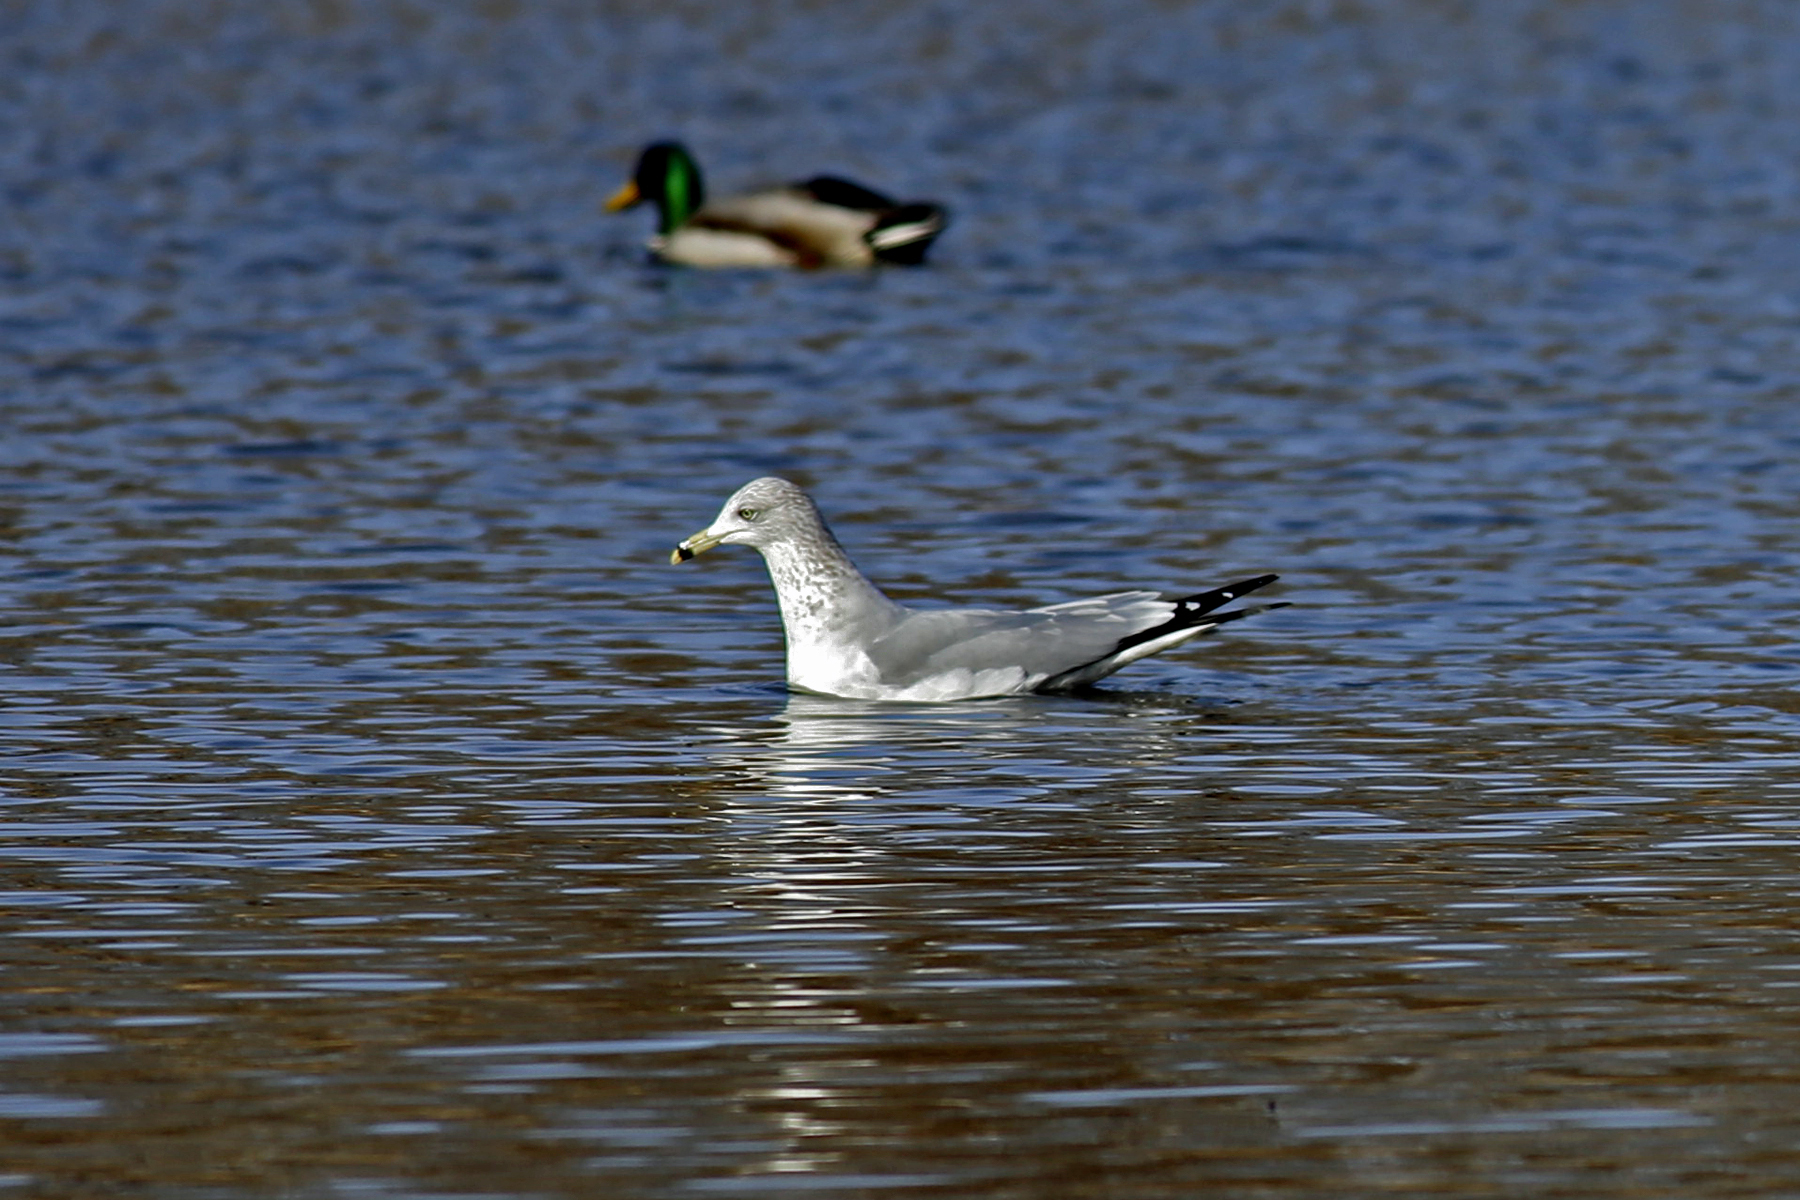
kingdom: Animalia
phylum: Chordata
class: Aves
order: Charadriiformes
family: Laridae
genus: Larus
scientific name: Larus delawarensis
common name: Ring-billed gull
